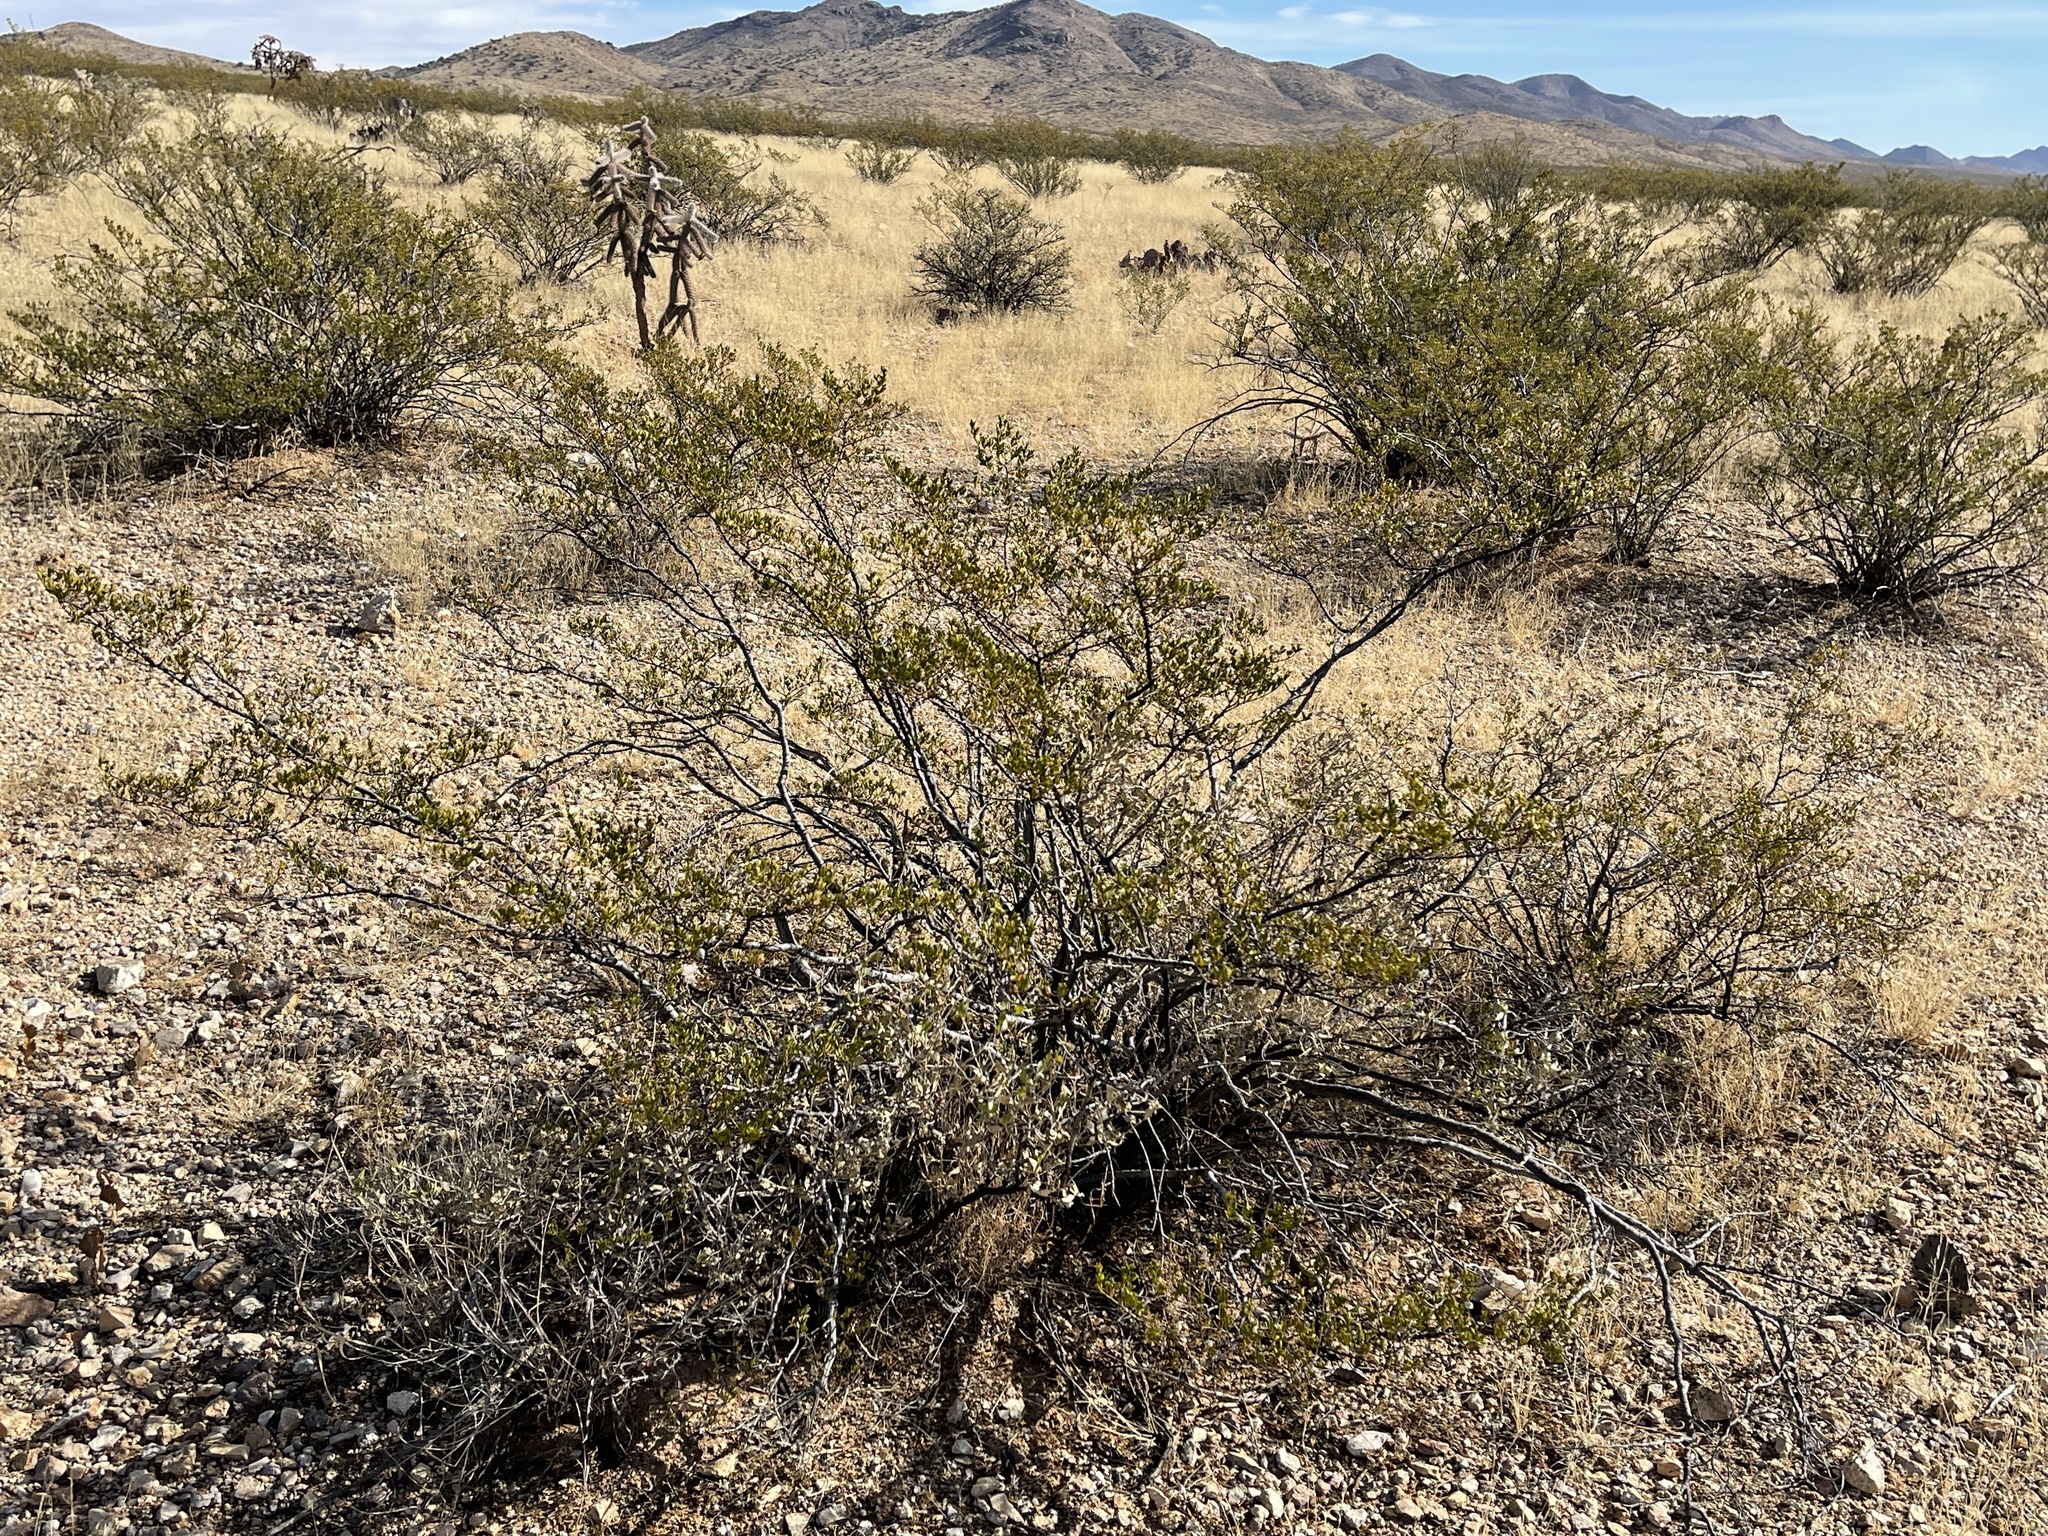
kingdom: Plantae
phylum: Tracheophyta
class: Magnoliopsida
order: Zygophyllales
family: Zygophyllaceae
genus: Larrea
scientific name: Larrea tridentata
